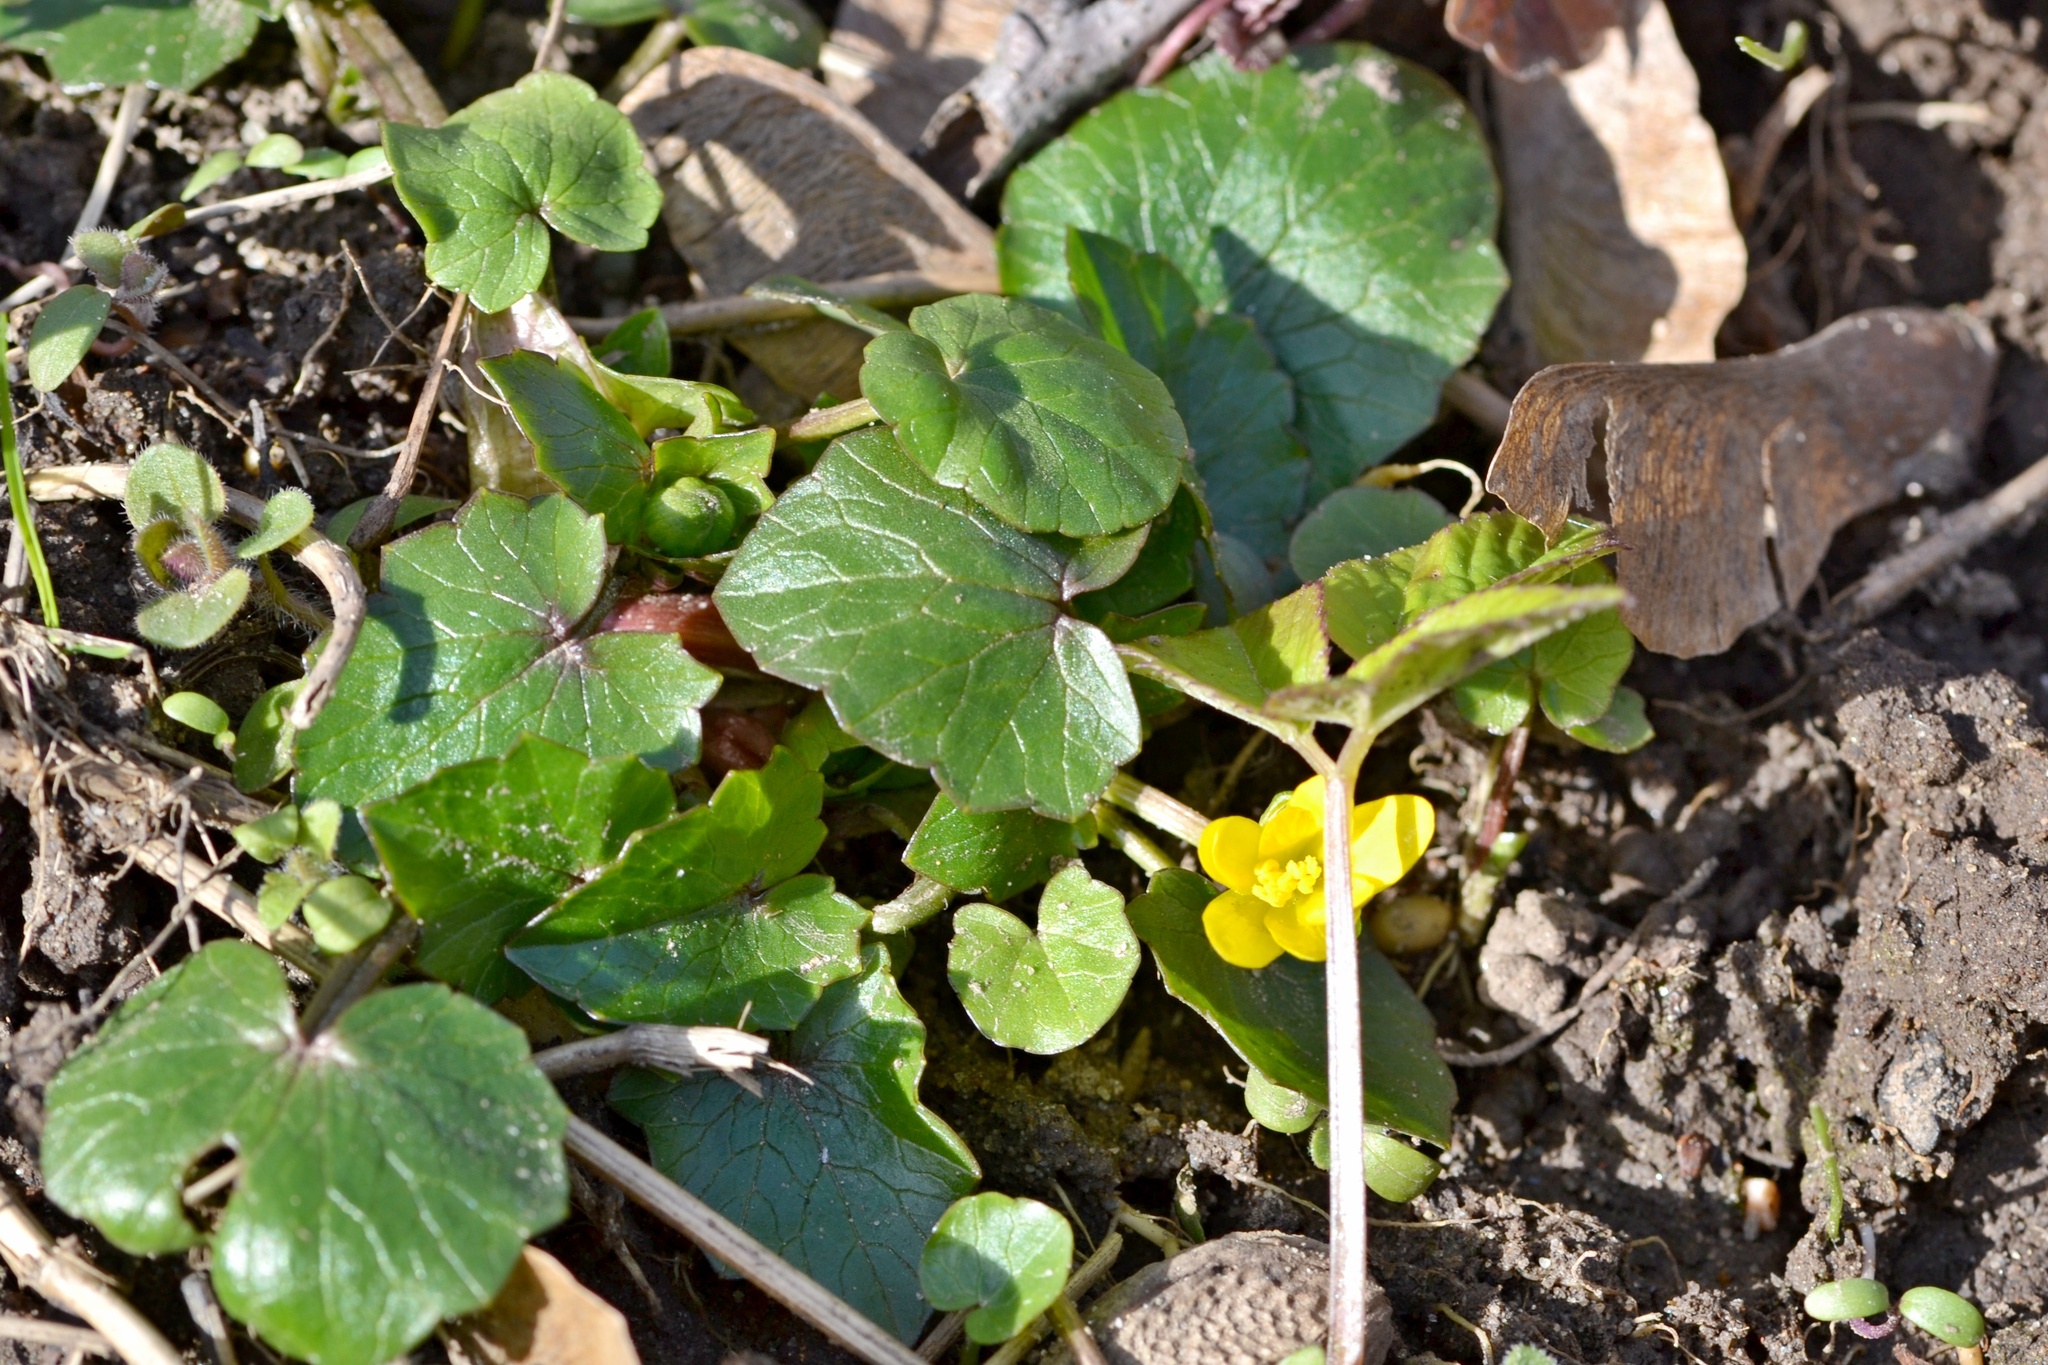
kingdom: Plantae
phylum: Tracheophyta
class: Magnoliopsida
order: Ranunculales
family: Ranunculaceae
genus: Ficaria
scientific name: Ficaria verna
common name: Lesser celandine
